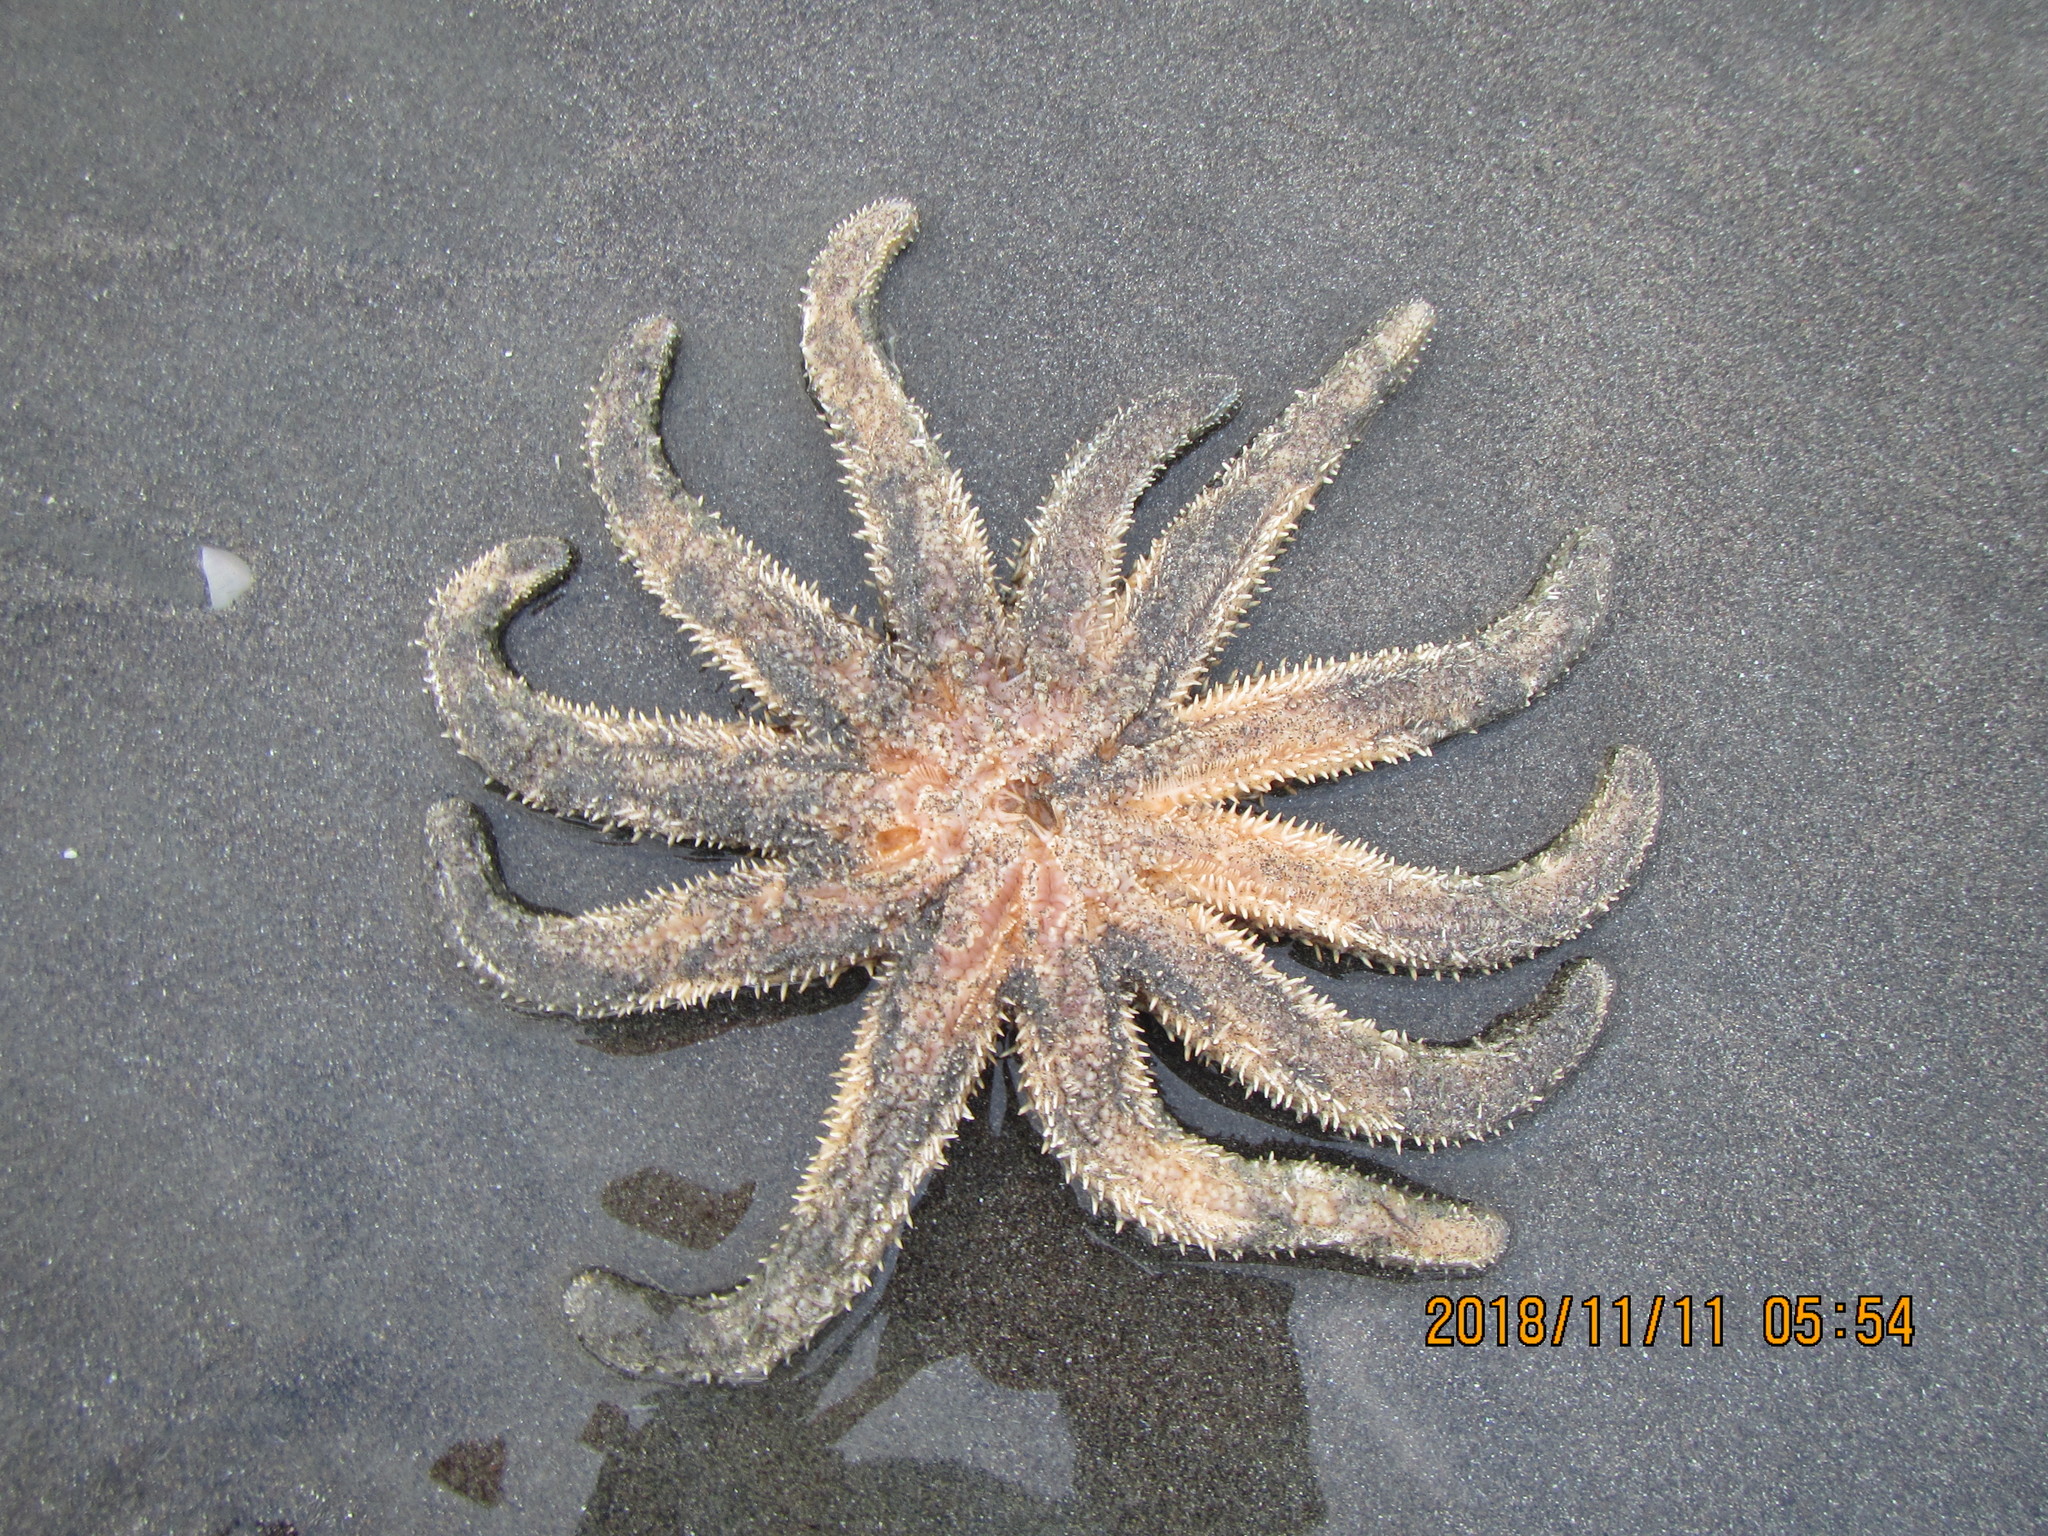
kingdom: Animalia
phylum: Echinodermata
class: Asteroidea
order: Forcipulatida
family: Asteriidae
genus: Coscinasterias
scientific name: Coscinasterias muricata
